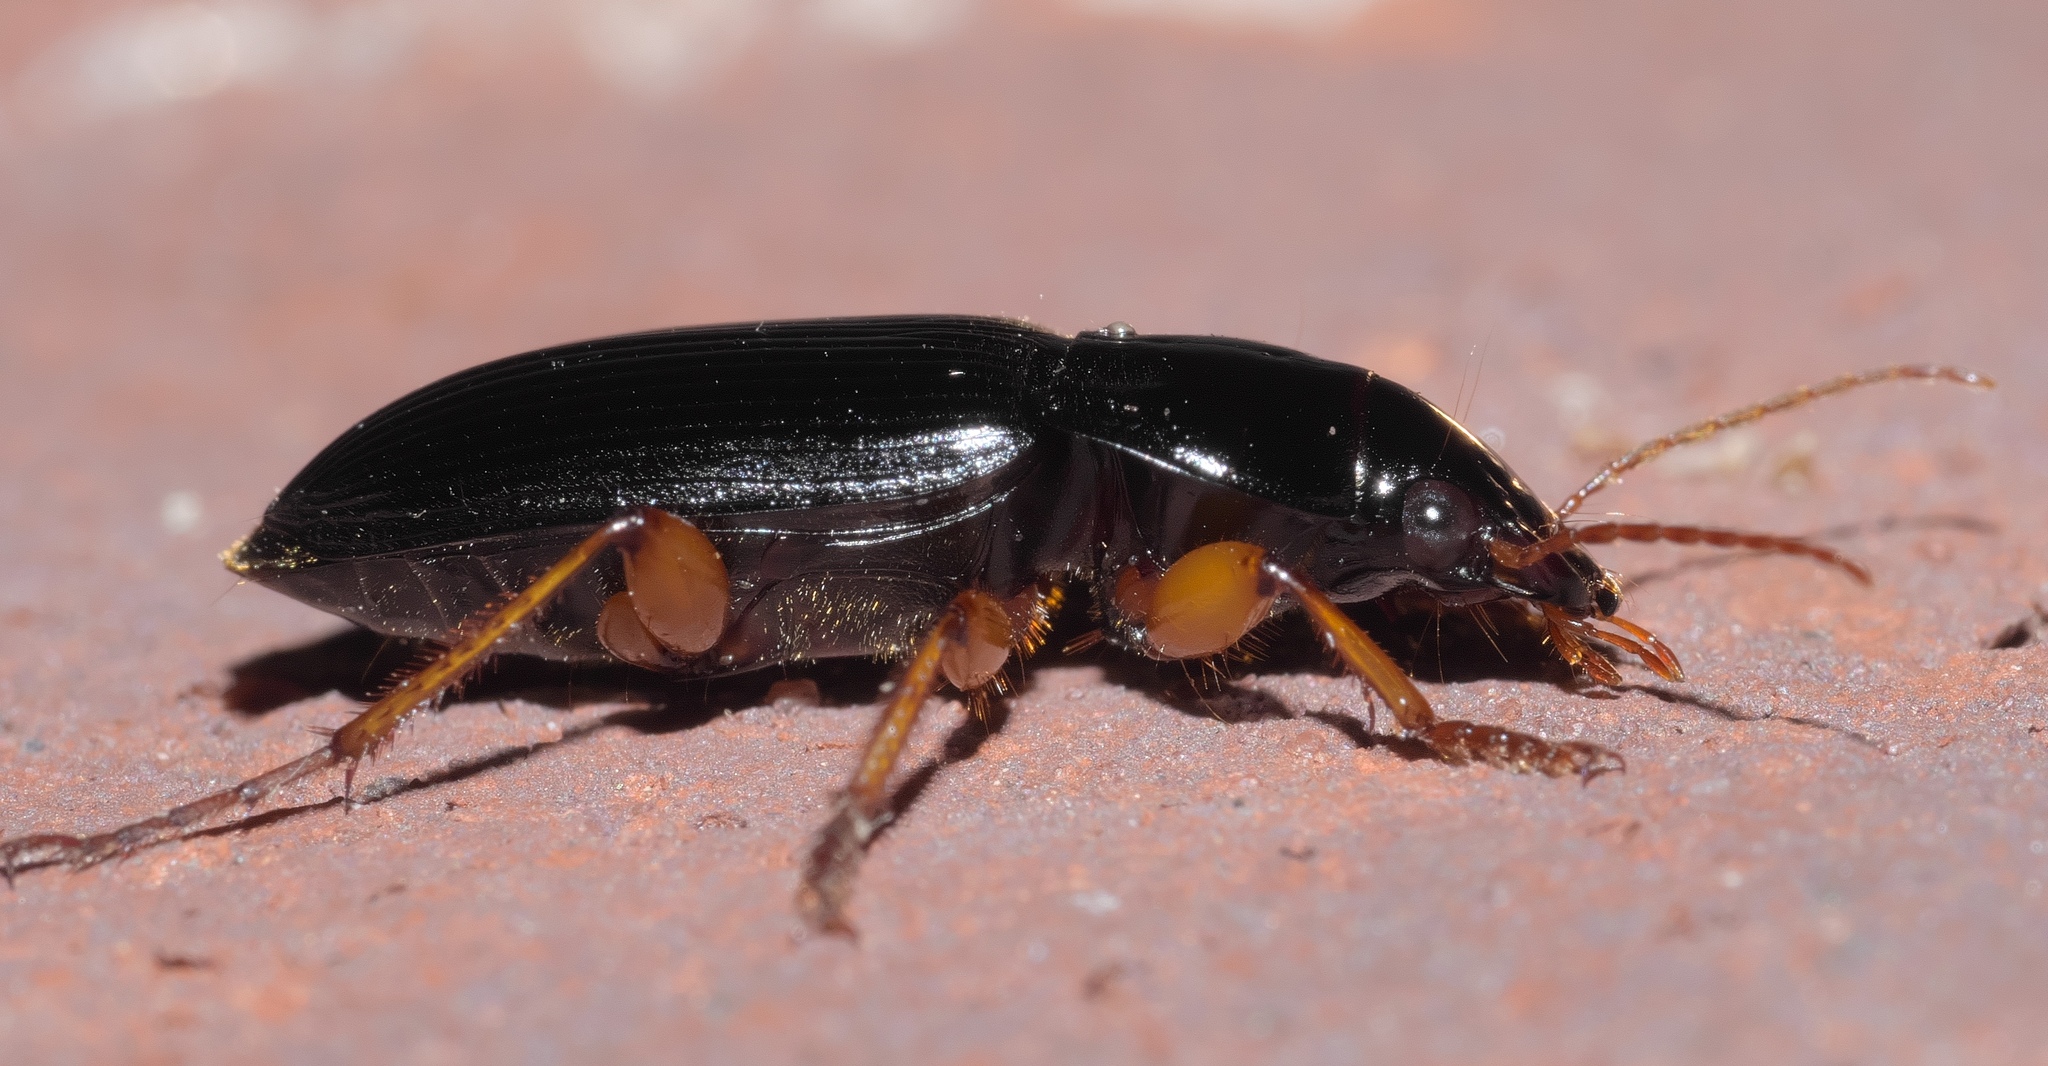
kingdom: Animalia
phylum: Arthropoda
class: Insecta
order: Coleoptera
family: Carabidae
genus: Harpalus
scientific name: Harpalus pensylvanicus
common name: Pennsylvania dingy ground beetle
